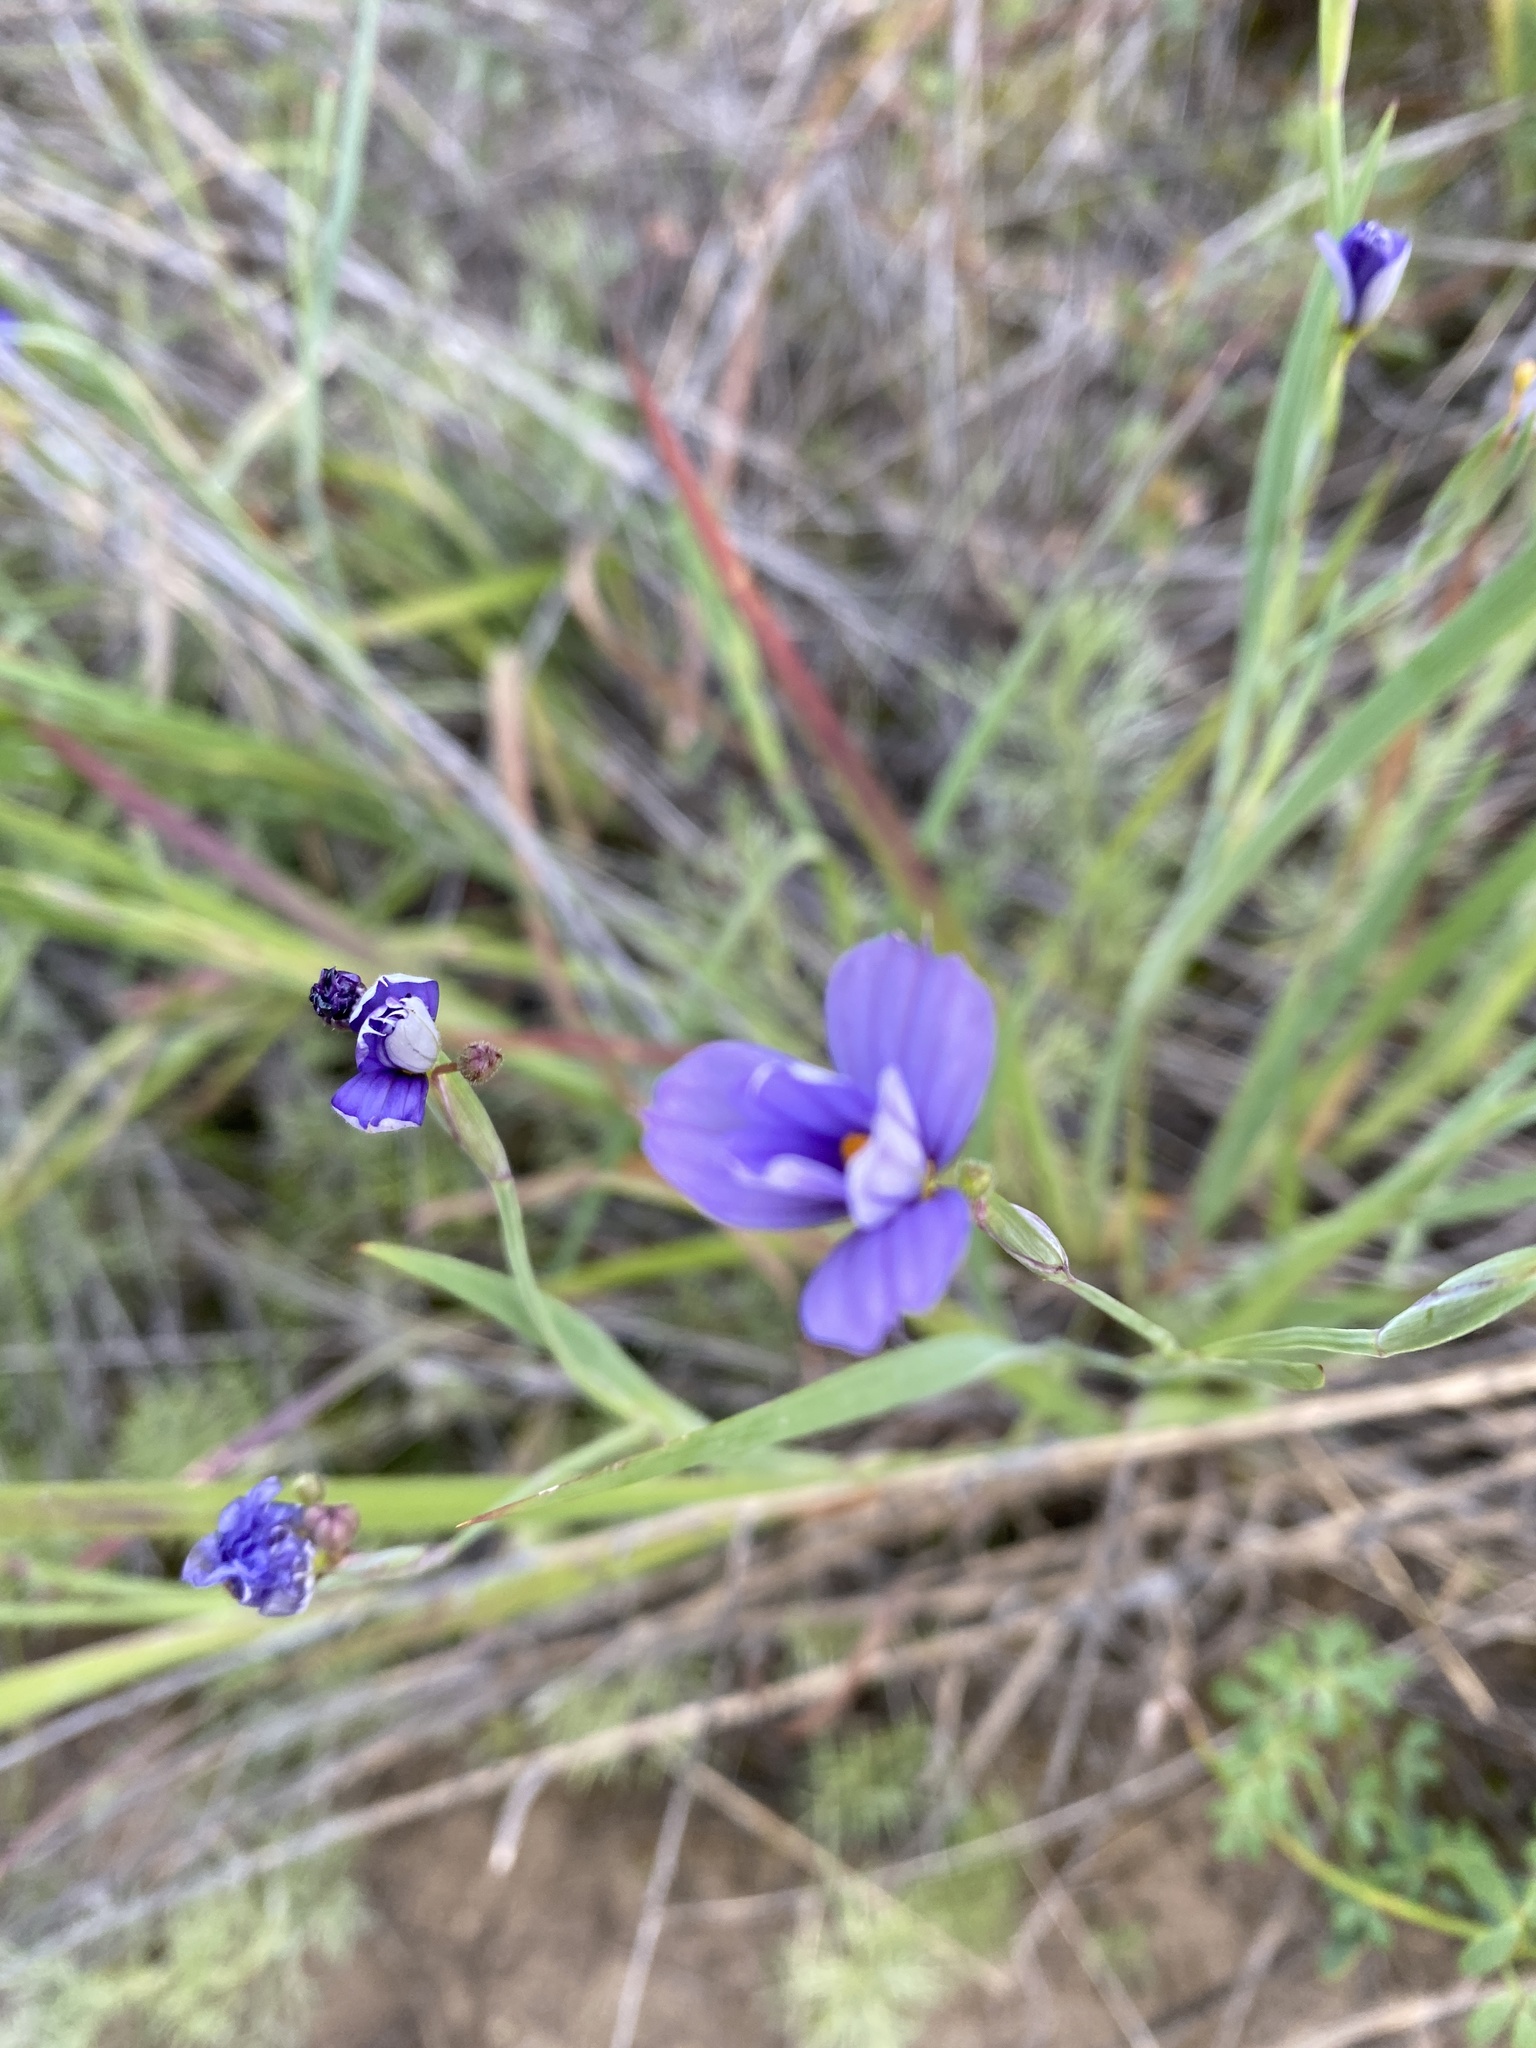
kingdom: Plantae
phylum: Tracheophyta
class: Liliopsida
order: Asparagales
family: Iridaceae
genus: Sisyrinchium
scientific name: Sisyrinchium bellum
